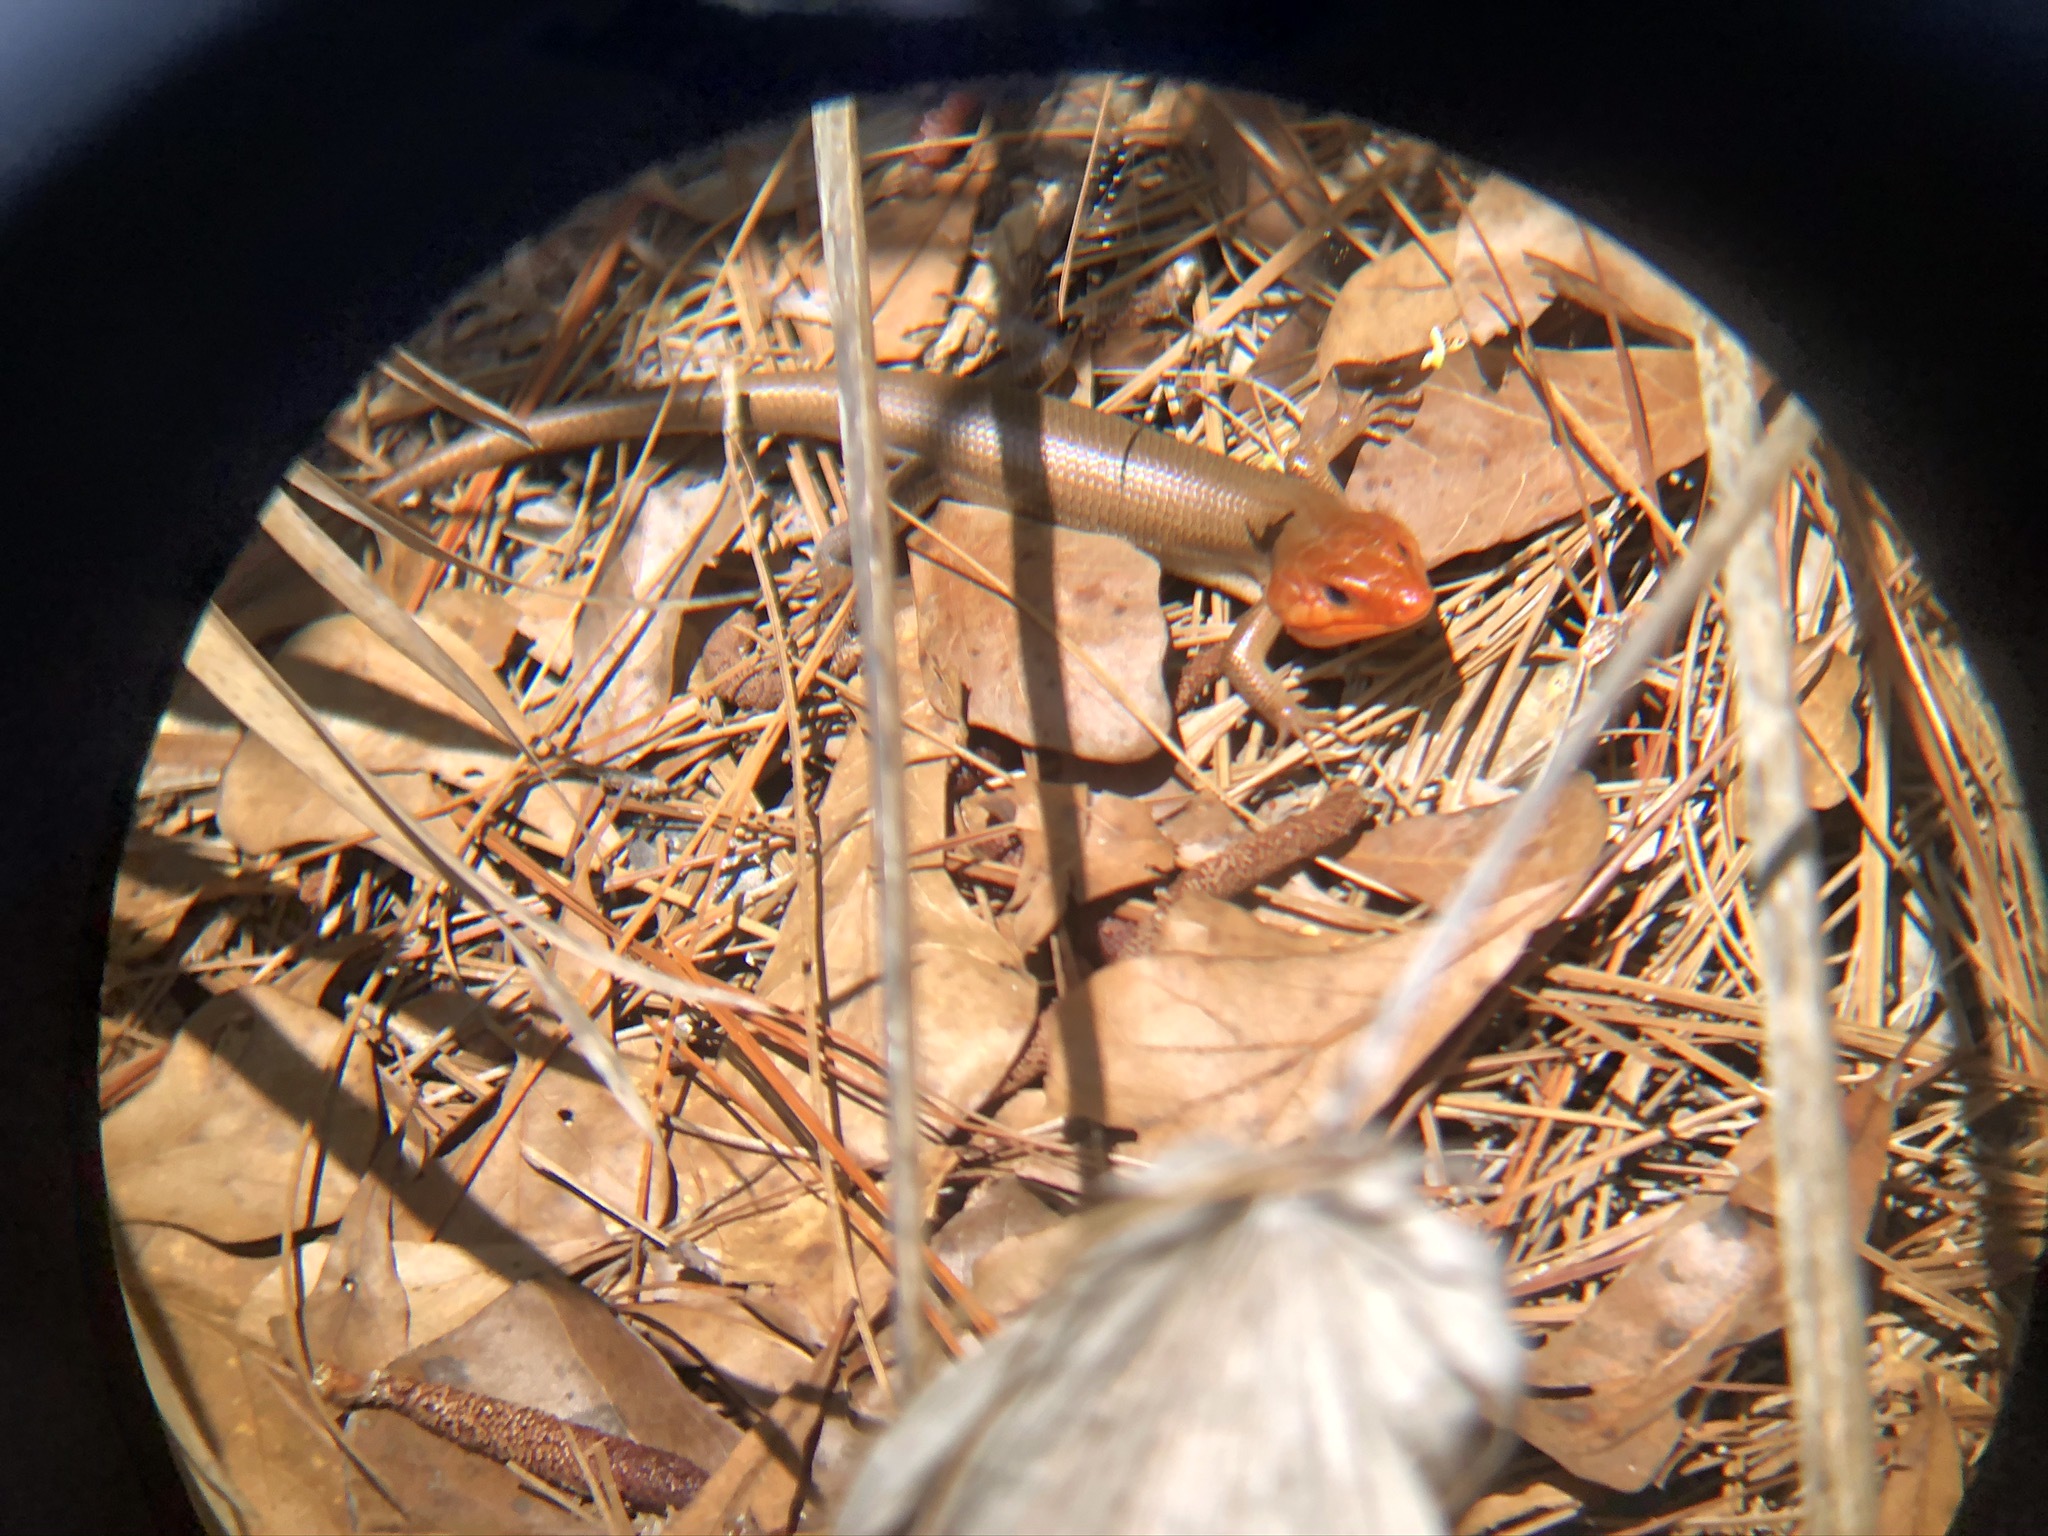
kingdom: Animalia
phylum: Chordata
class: Squamata
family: Scincidae
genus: Plestiodon
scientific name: Plestiodon laticeps
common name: Broadhead skink
